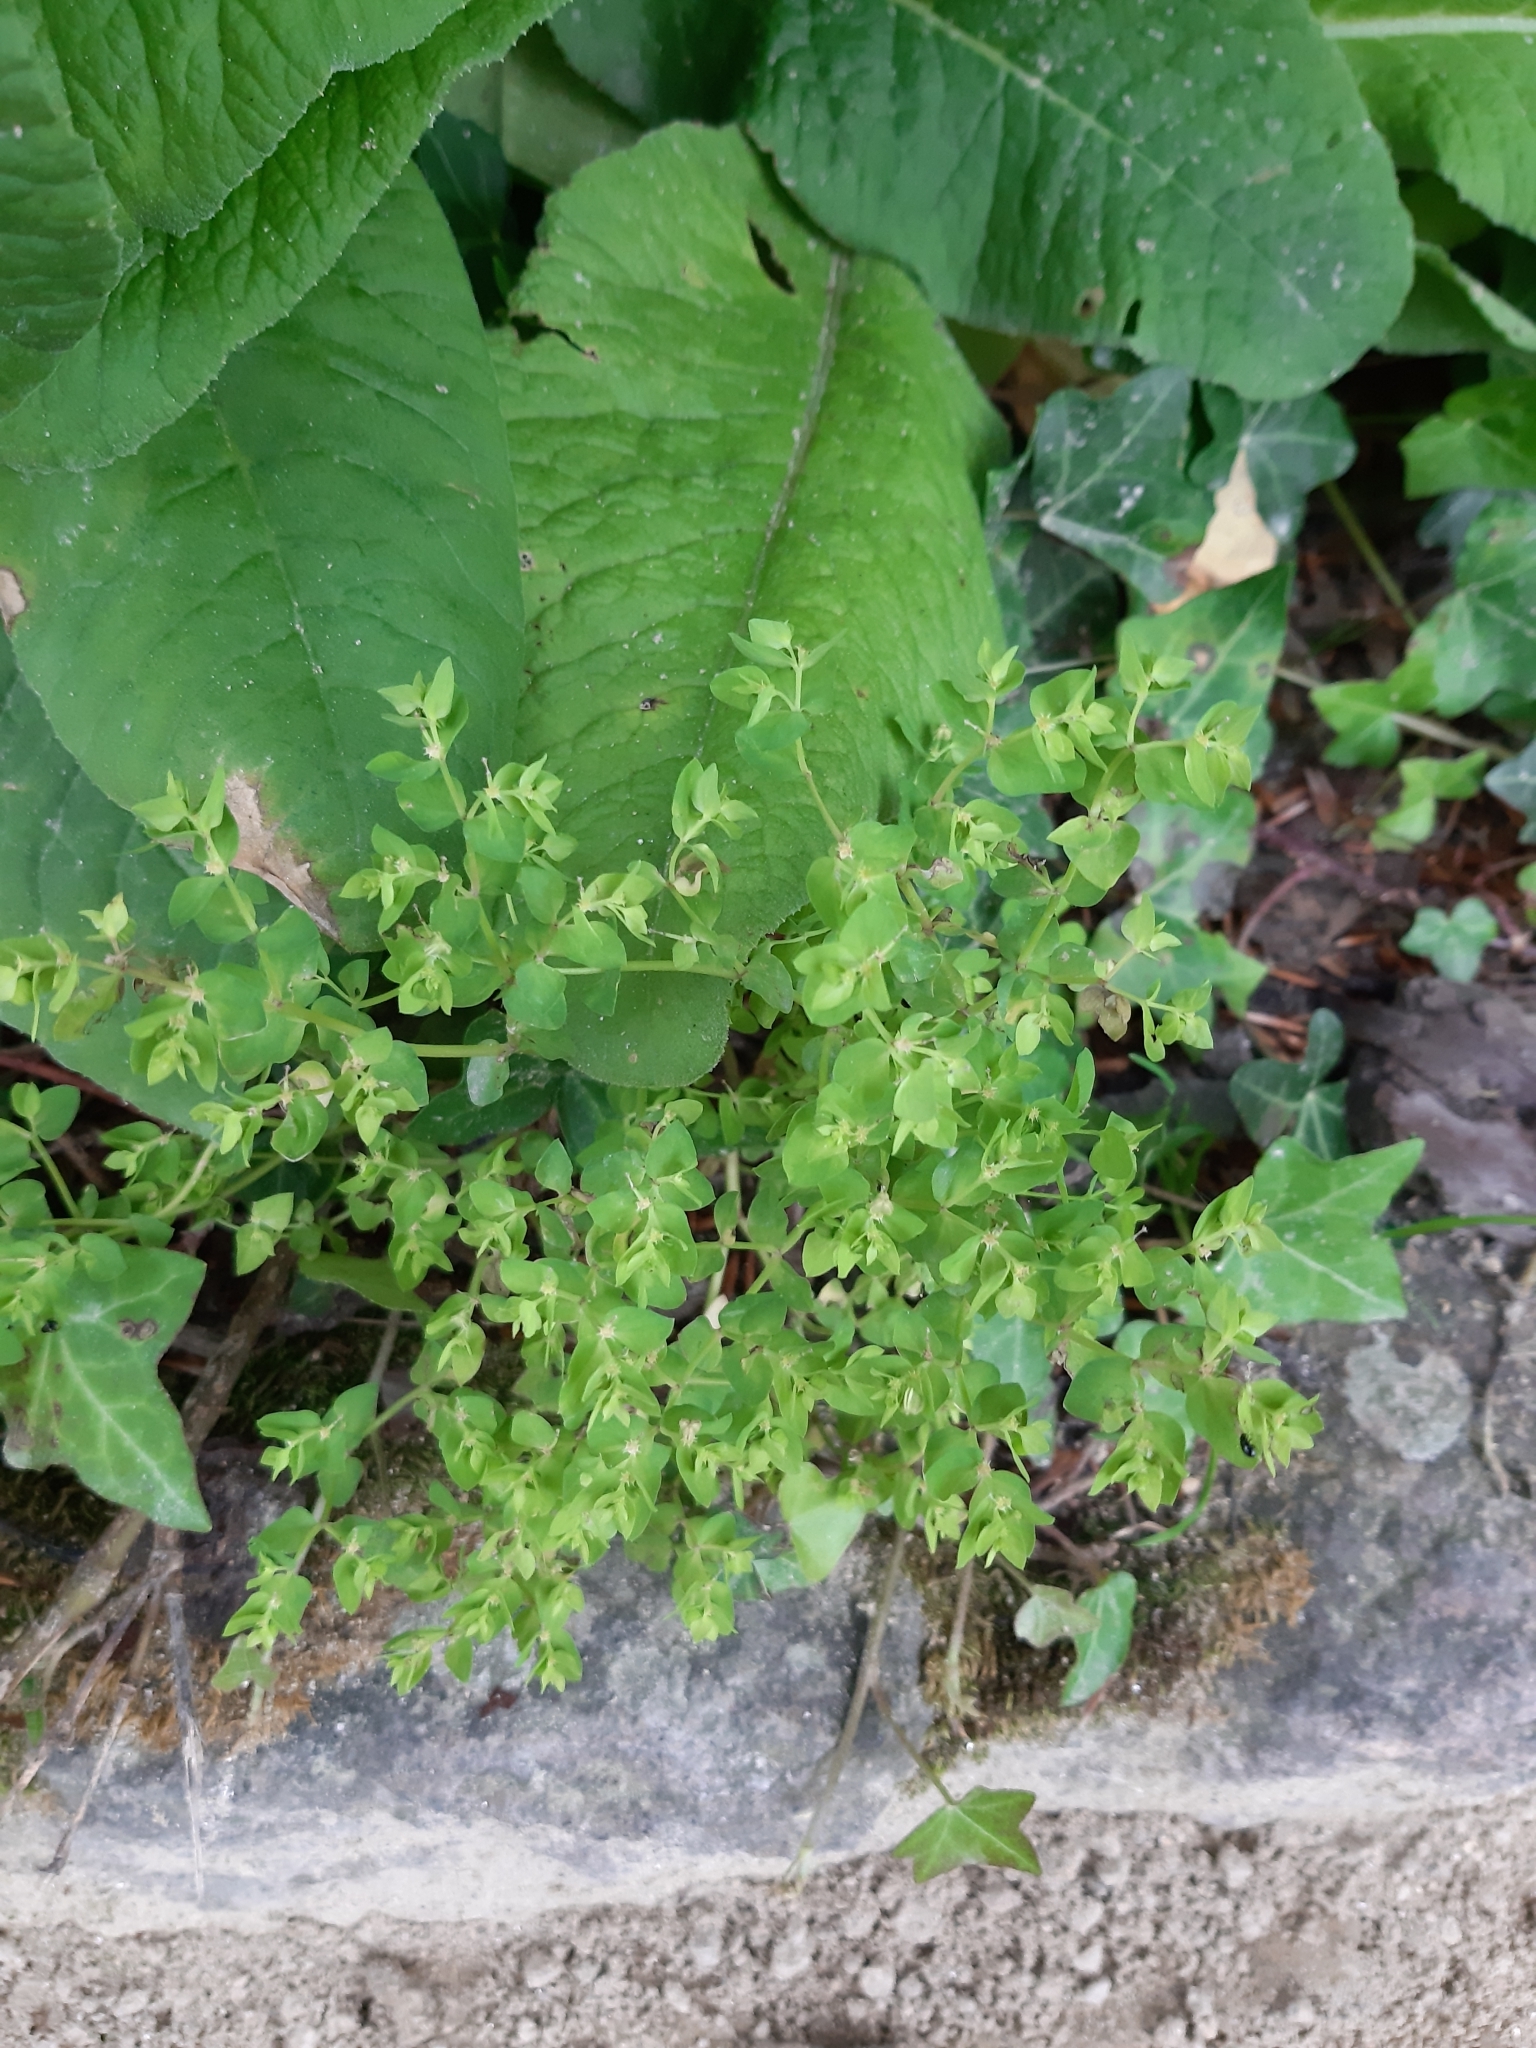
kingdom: Plantae
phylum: Tracheophyta
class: Magnoliopsida
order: Malpighiales
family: Euphorbiaceae
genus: Euphorbia
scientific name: Euphorbia peplus
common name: Petty spurge
